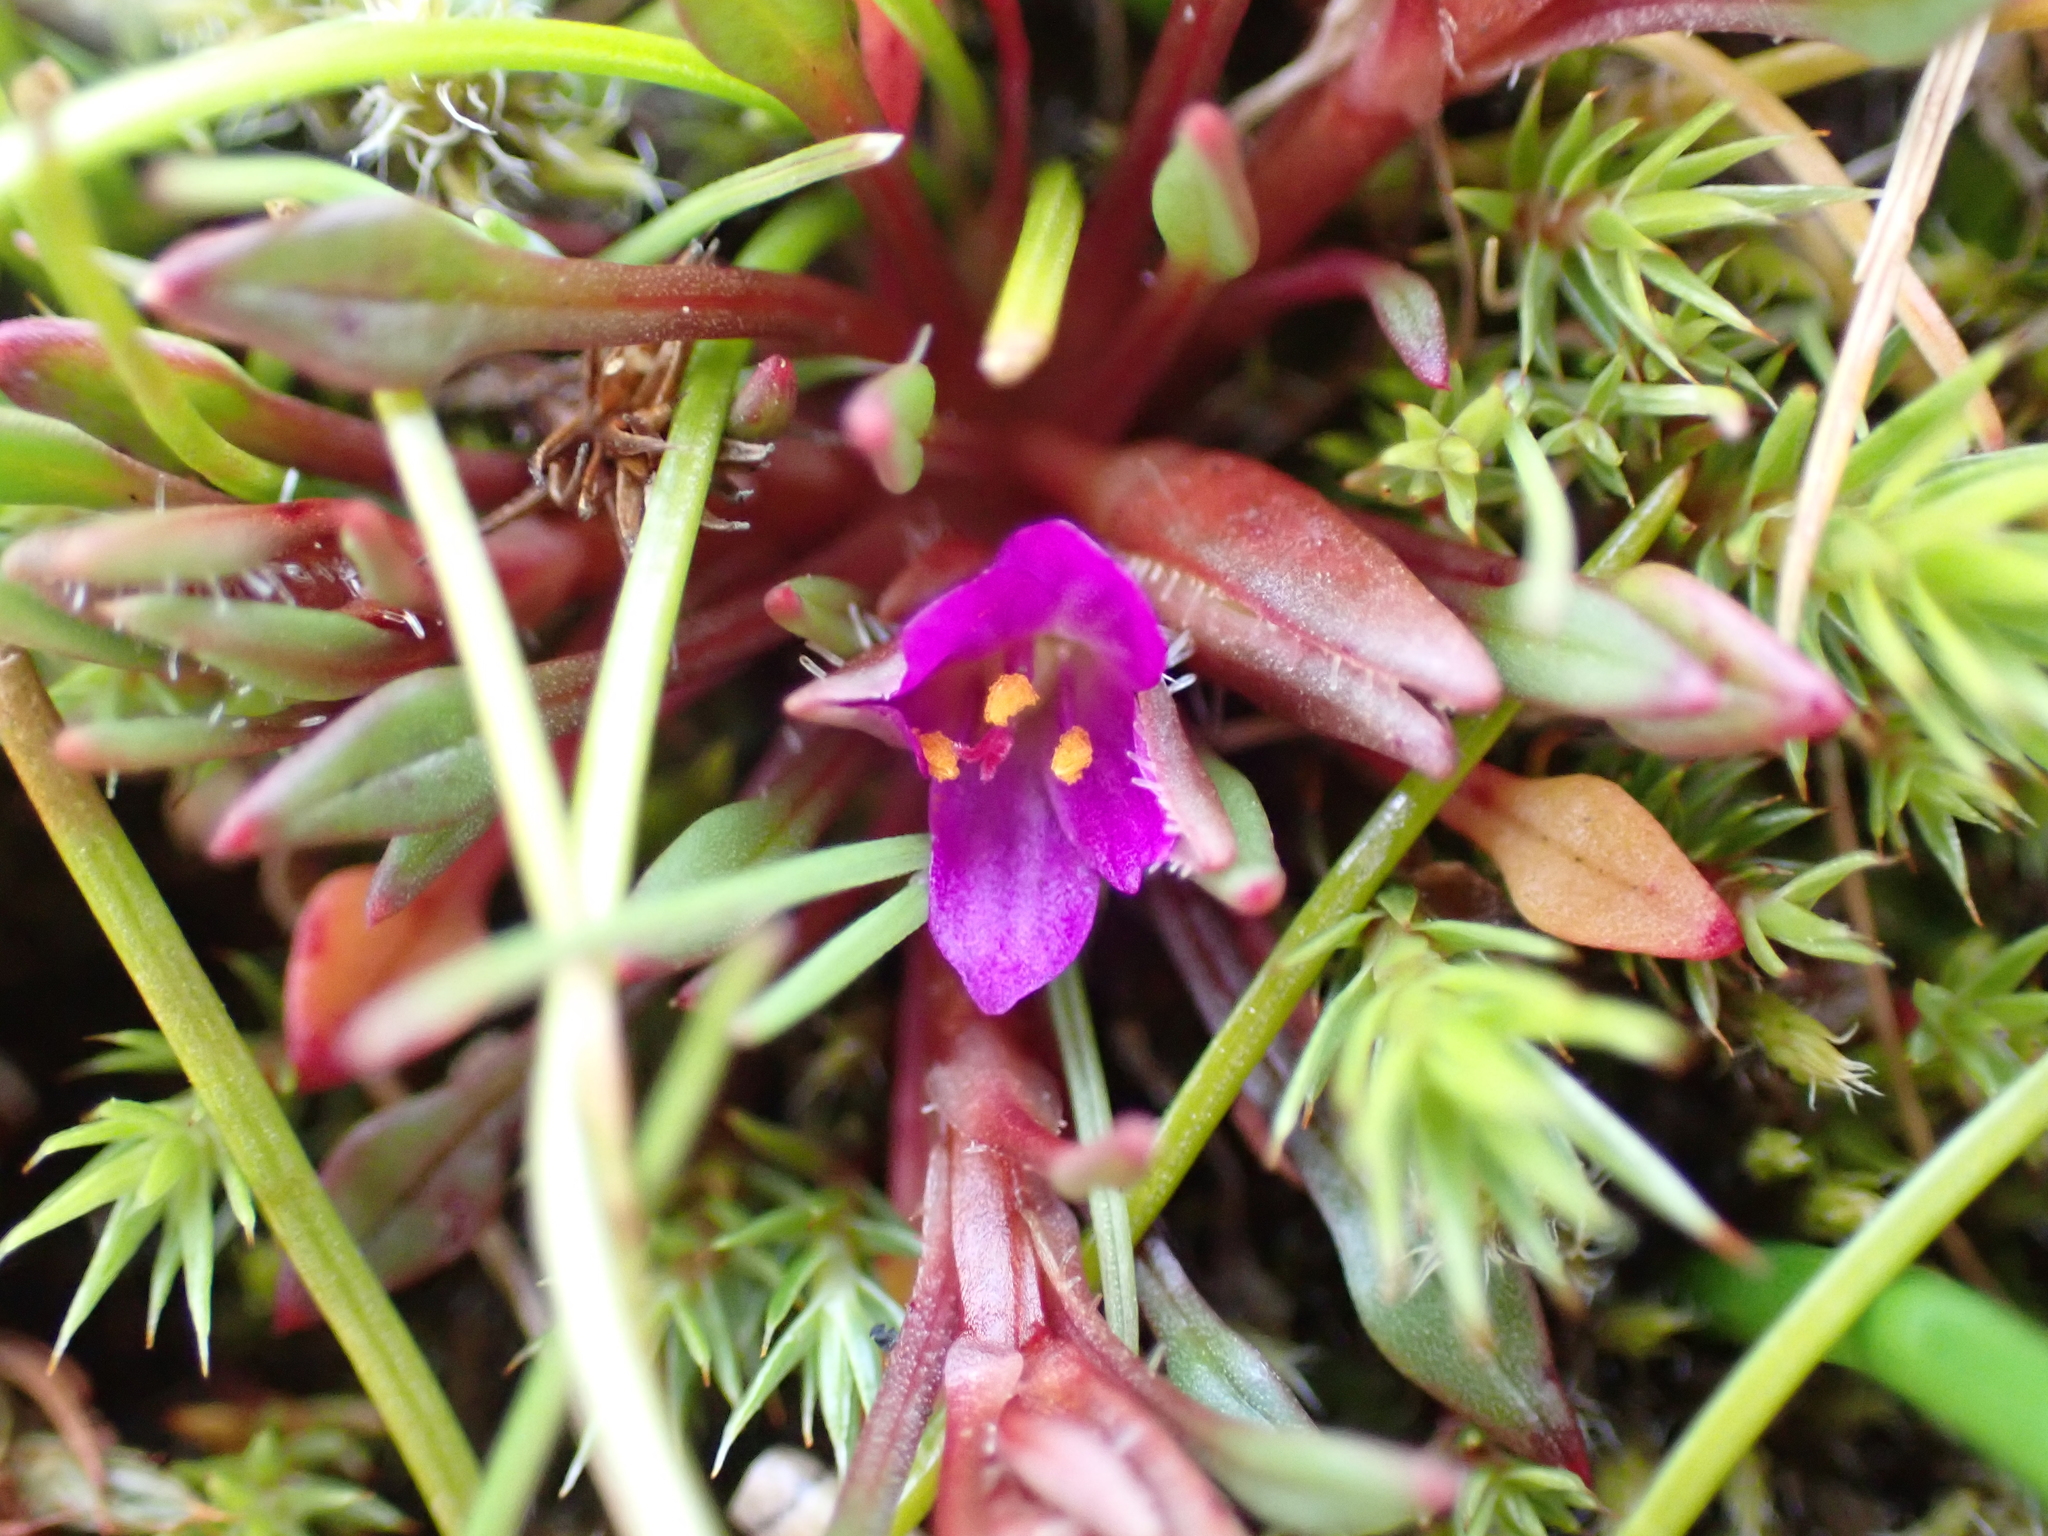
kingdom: Plantae
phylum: Tracheophyta
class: Magnoliopsida
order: Caryophyllales
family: Montiaceae
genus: Calandrinia
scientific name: Calandrinia menziesii
